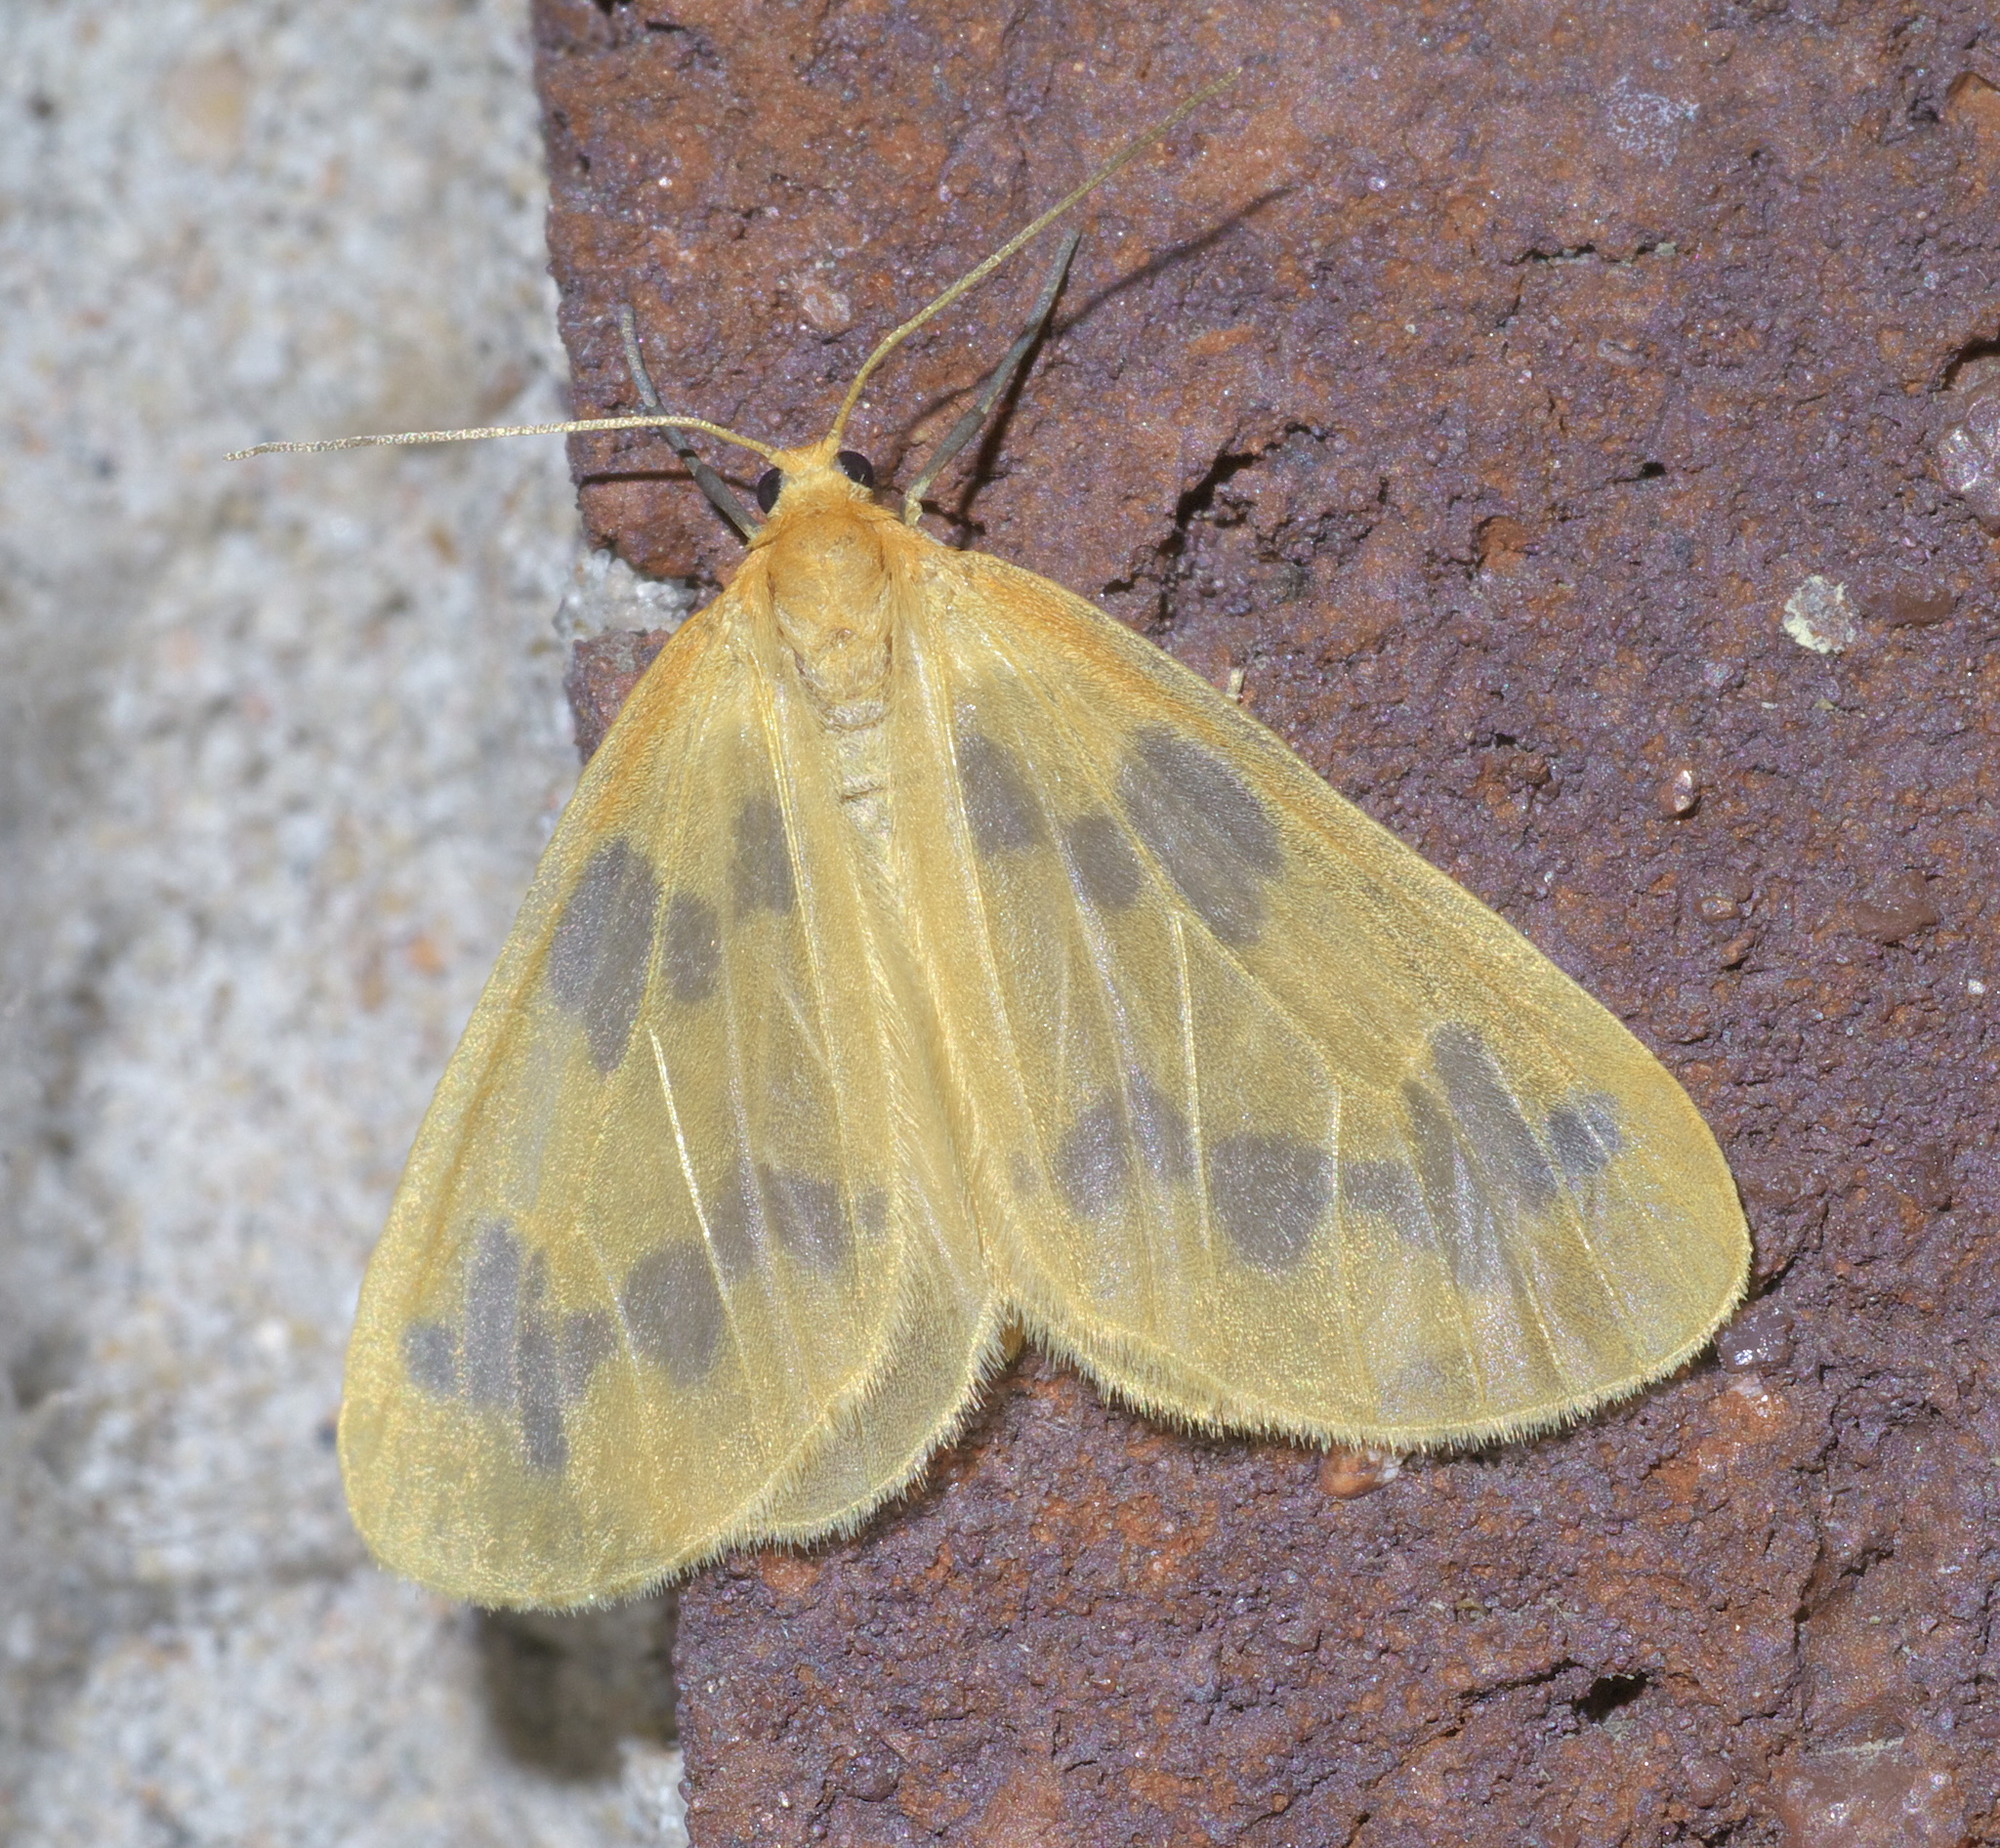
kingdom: Animalia
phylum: Arthropoda
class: Insecta
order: Lepidoptera
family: Geometridae
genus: Eubaphe
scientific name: Eubaphe mendica
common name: Beggar
